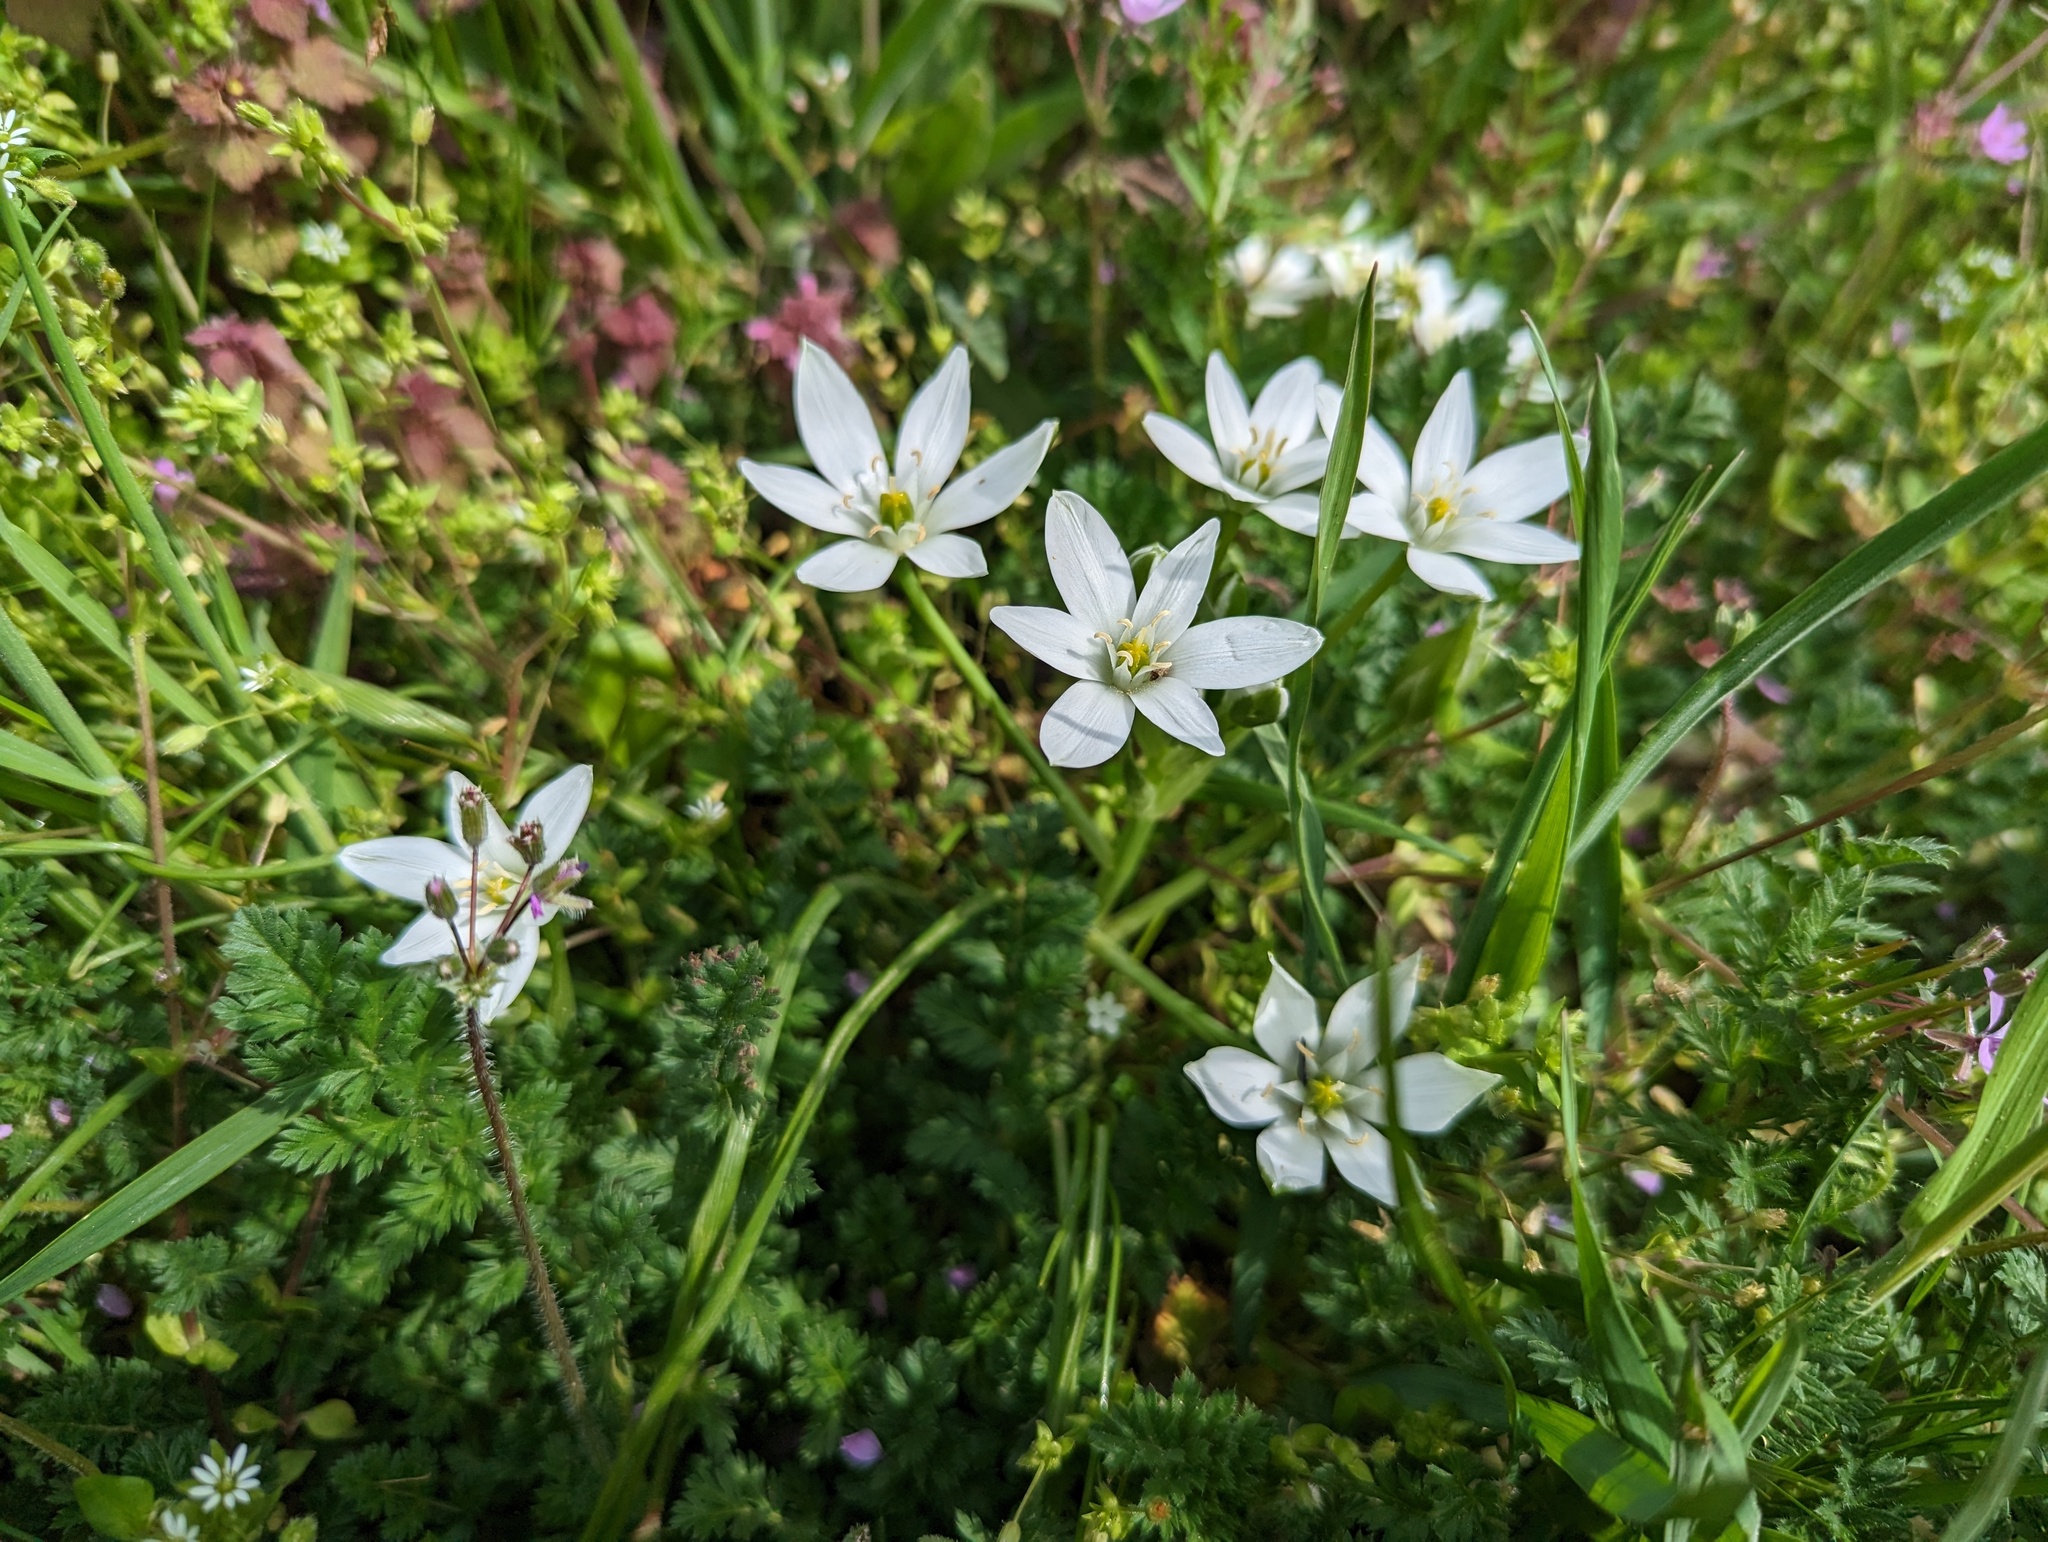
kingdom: Plantae
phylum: Tracheophyta
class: Liliopsida
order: Asparagales
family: Asparagaceae
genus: Ornithogalum
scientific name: Ornithogalum umbellatum
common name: Garden star-of-bethlehem
